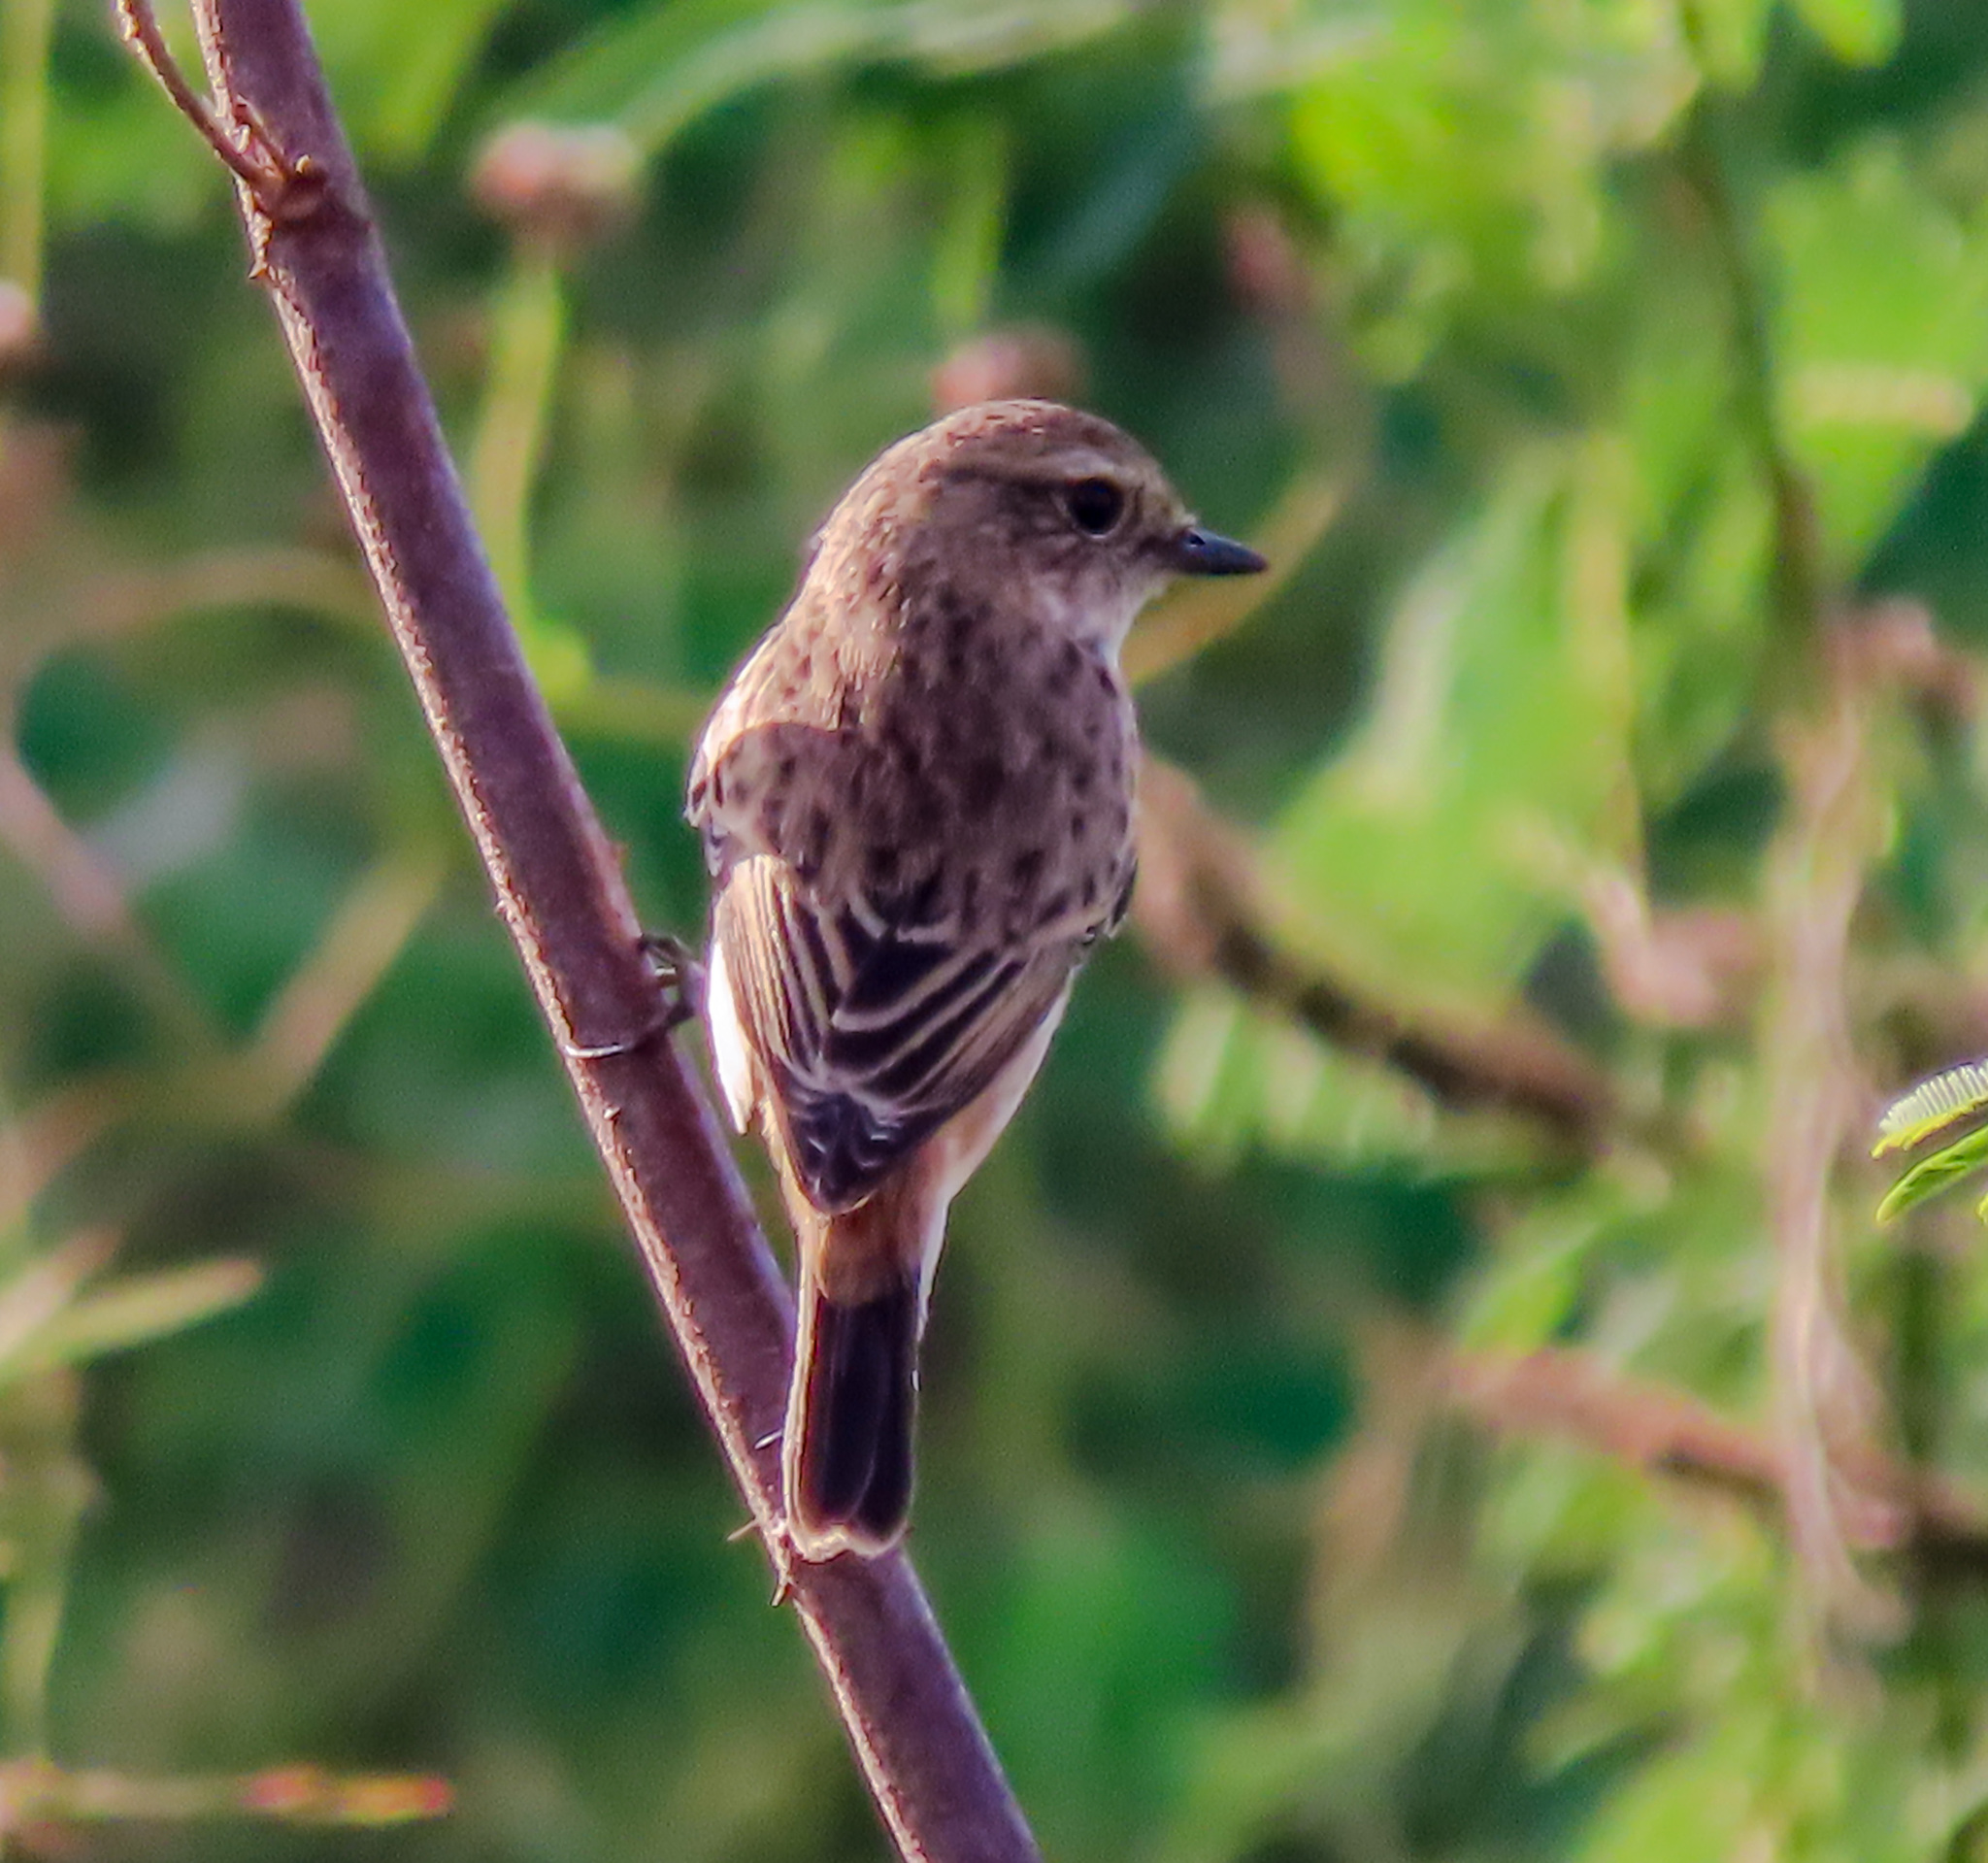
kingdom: Animalia
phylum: Chordata
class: Aves
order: Passeriformes
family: Muscicapidae
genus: Saxicola
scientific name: Saxicola stejnegeri
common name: Stejneger's stonechat
